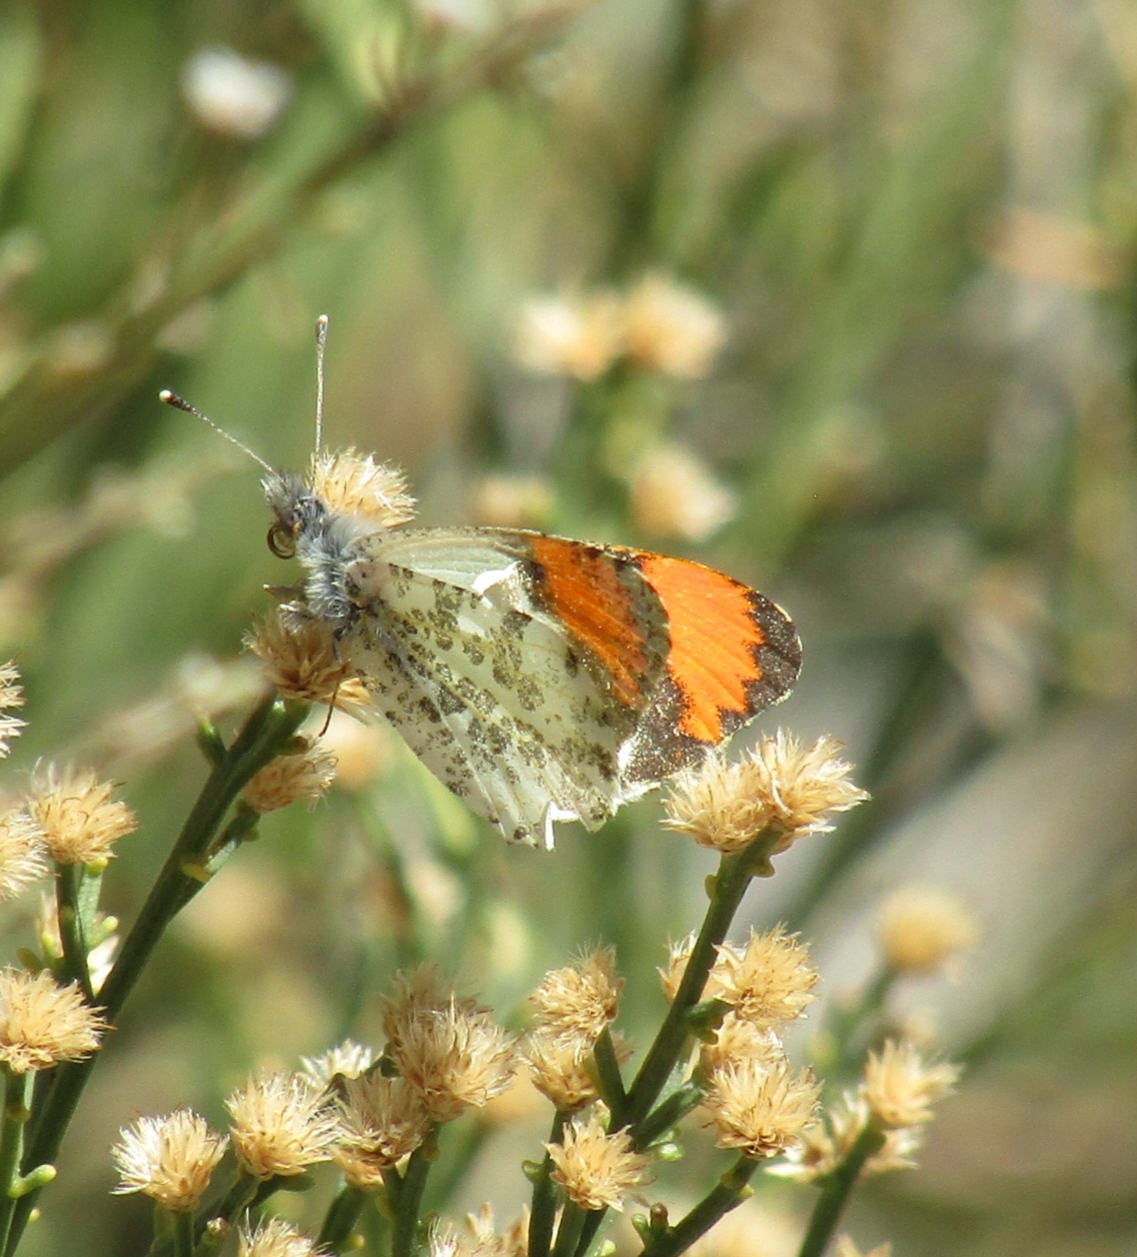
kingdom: Animalia
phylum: Arthropoda
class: Insecta
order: Lepidoptera
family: Pieridae
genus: Anthocharis
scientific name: Anthocharis sara
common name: Sara's orangetip
